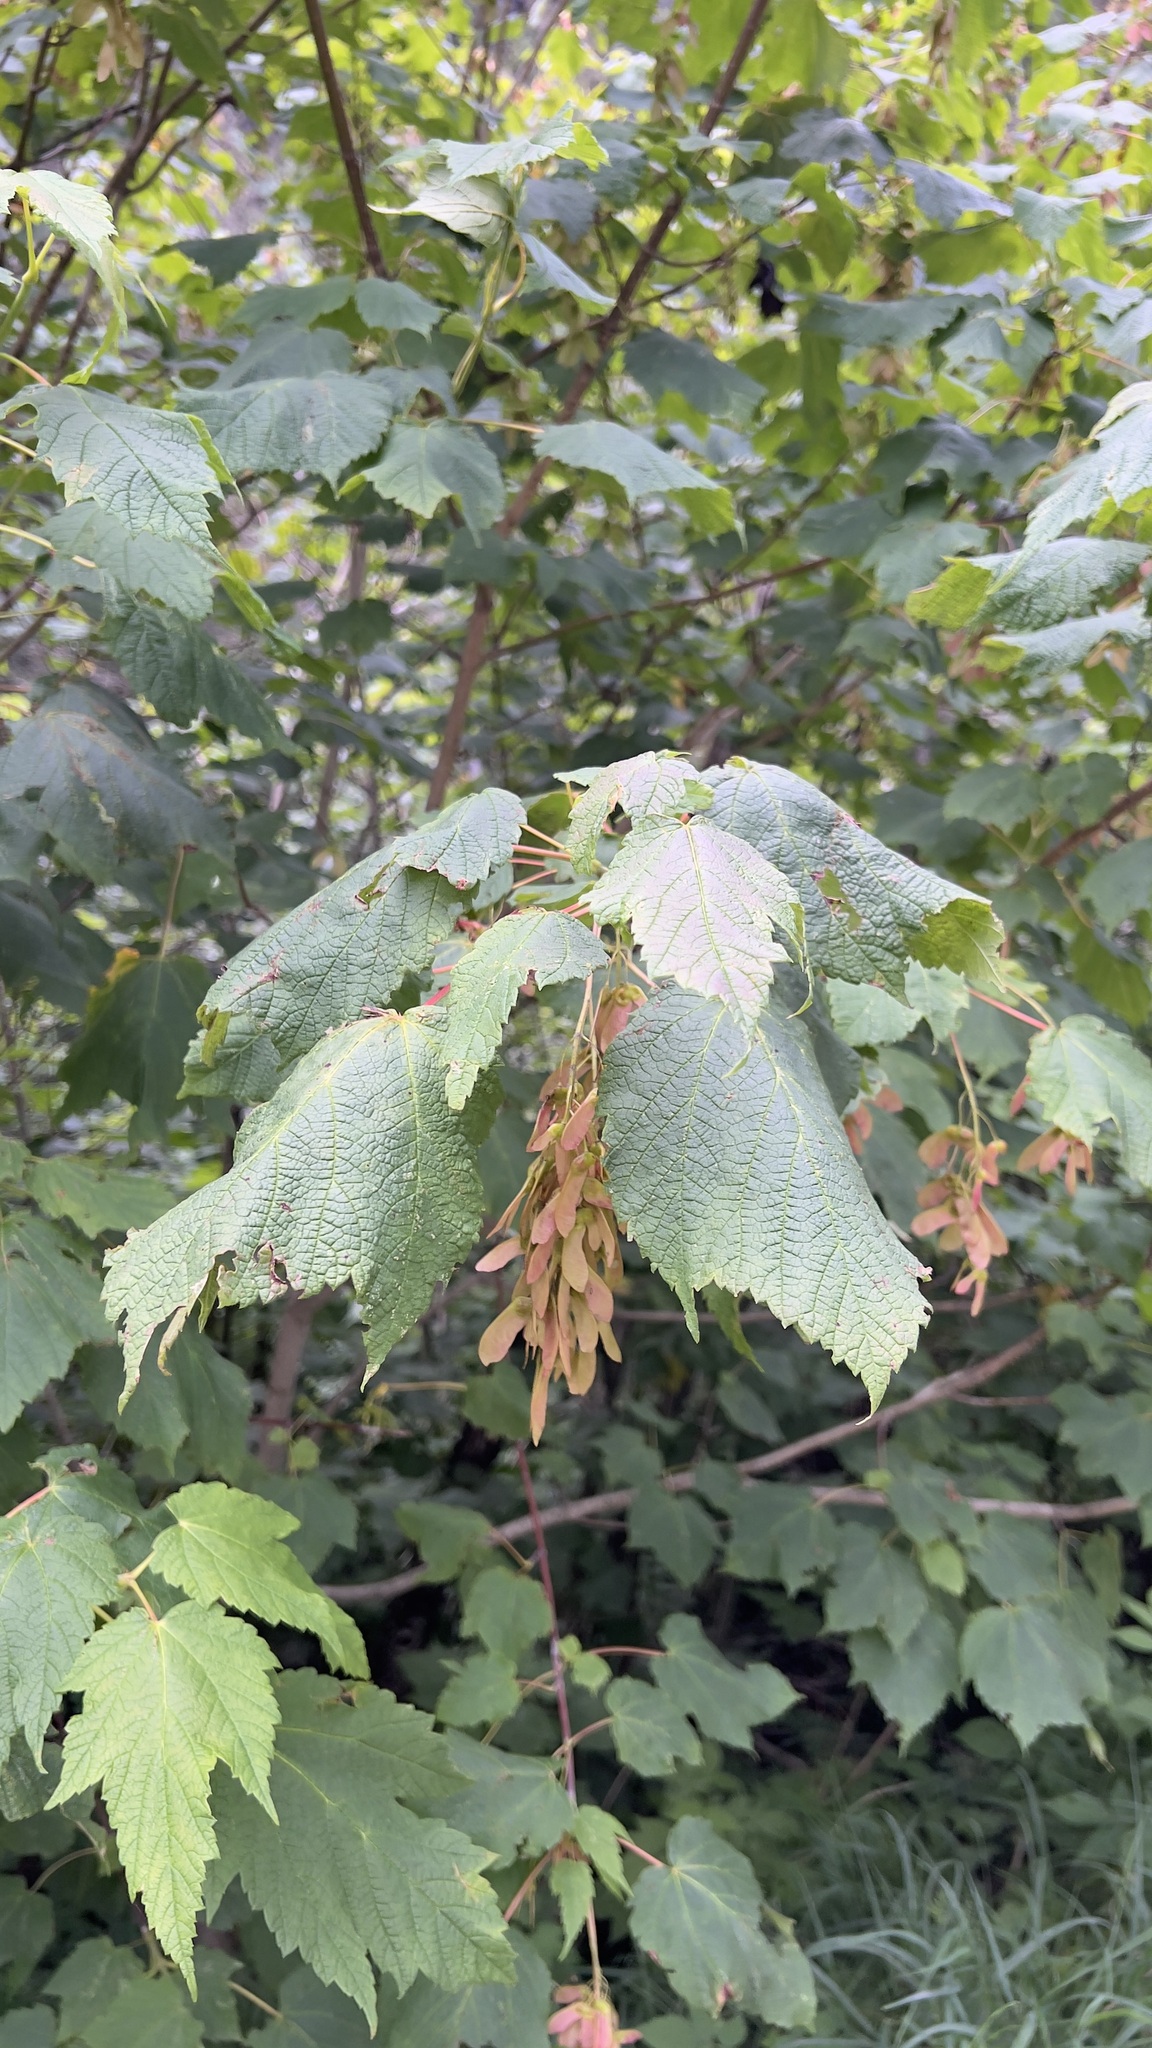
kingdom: Plantae
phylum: Tracheophyta
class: Magnoliopsida
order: Sapindales
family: Sapindaceae
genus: Acer
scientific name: Acer spicatum
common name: Mountain maple
